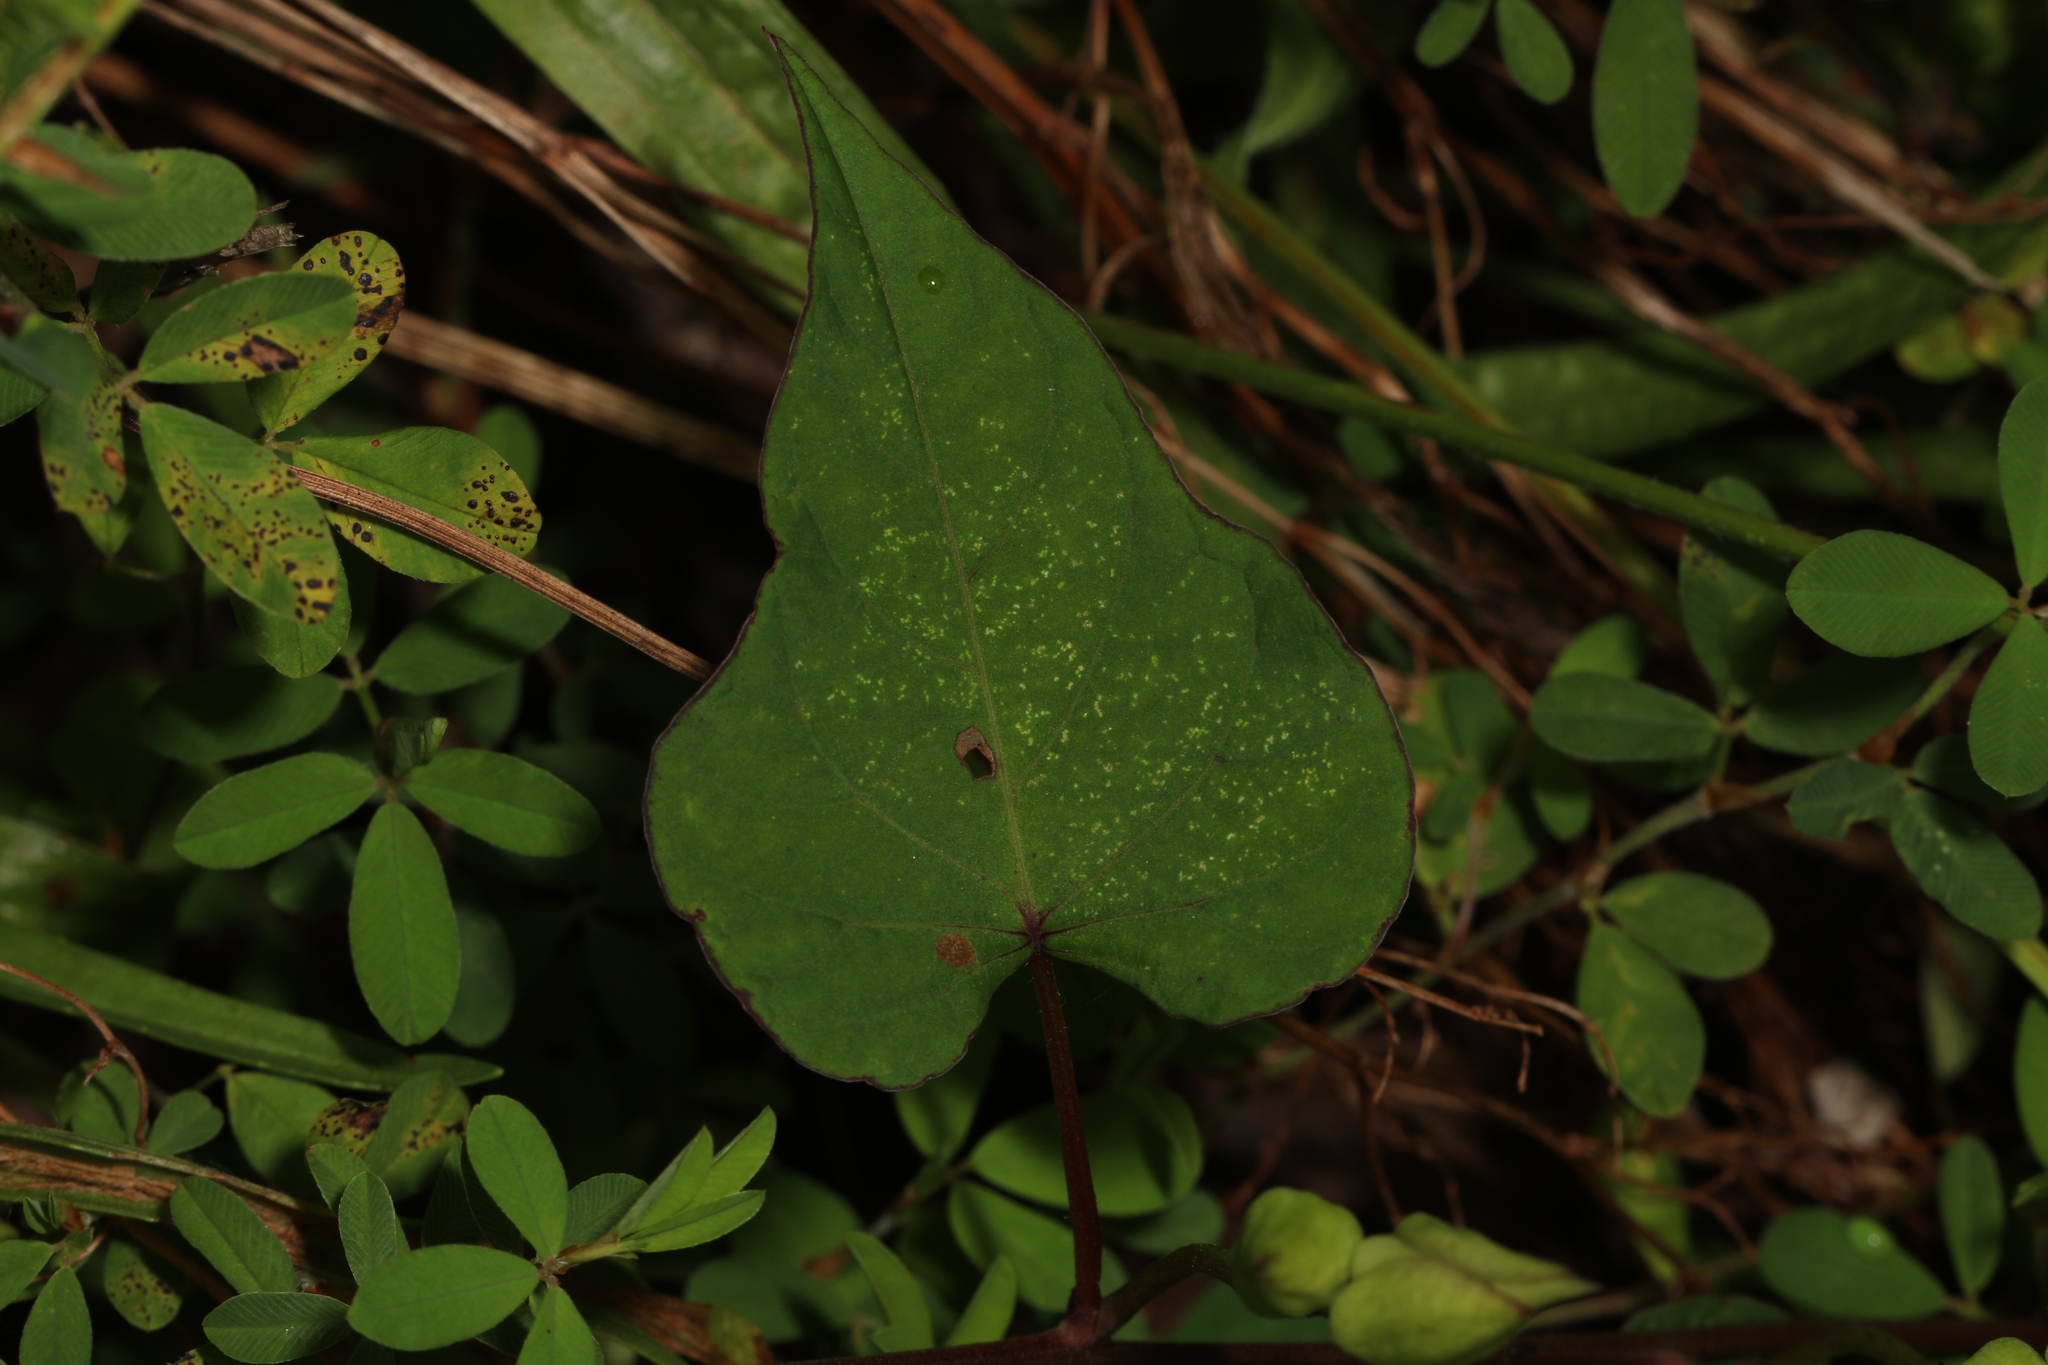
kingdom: Plantae
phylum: Tracheophyta
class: Magnoliopsida
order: Solanales
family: Convolvulaceae
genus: Ipomoea
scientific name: Ipomoea pandurata
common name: Man-of-the-earth
